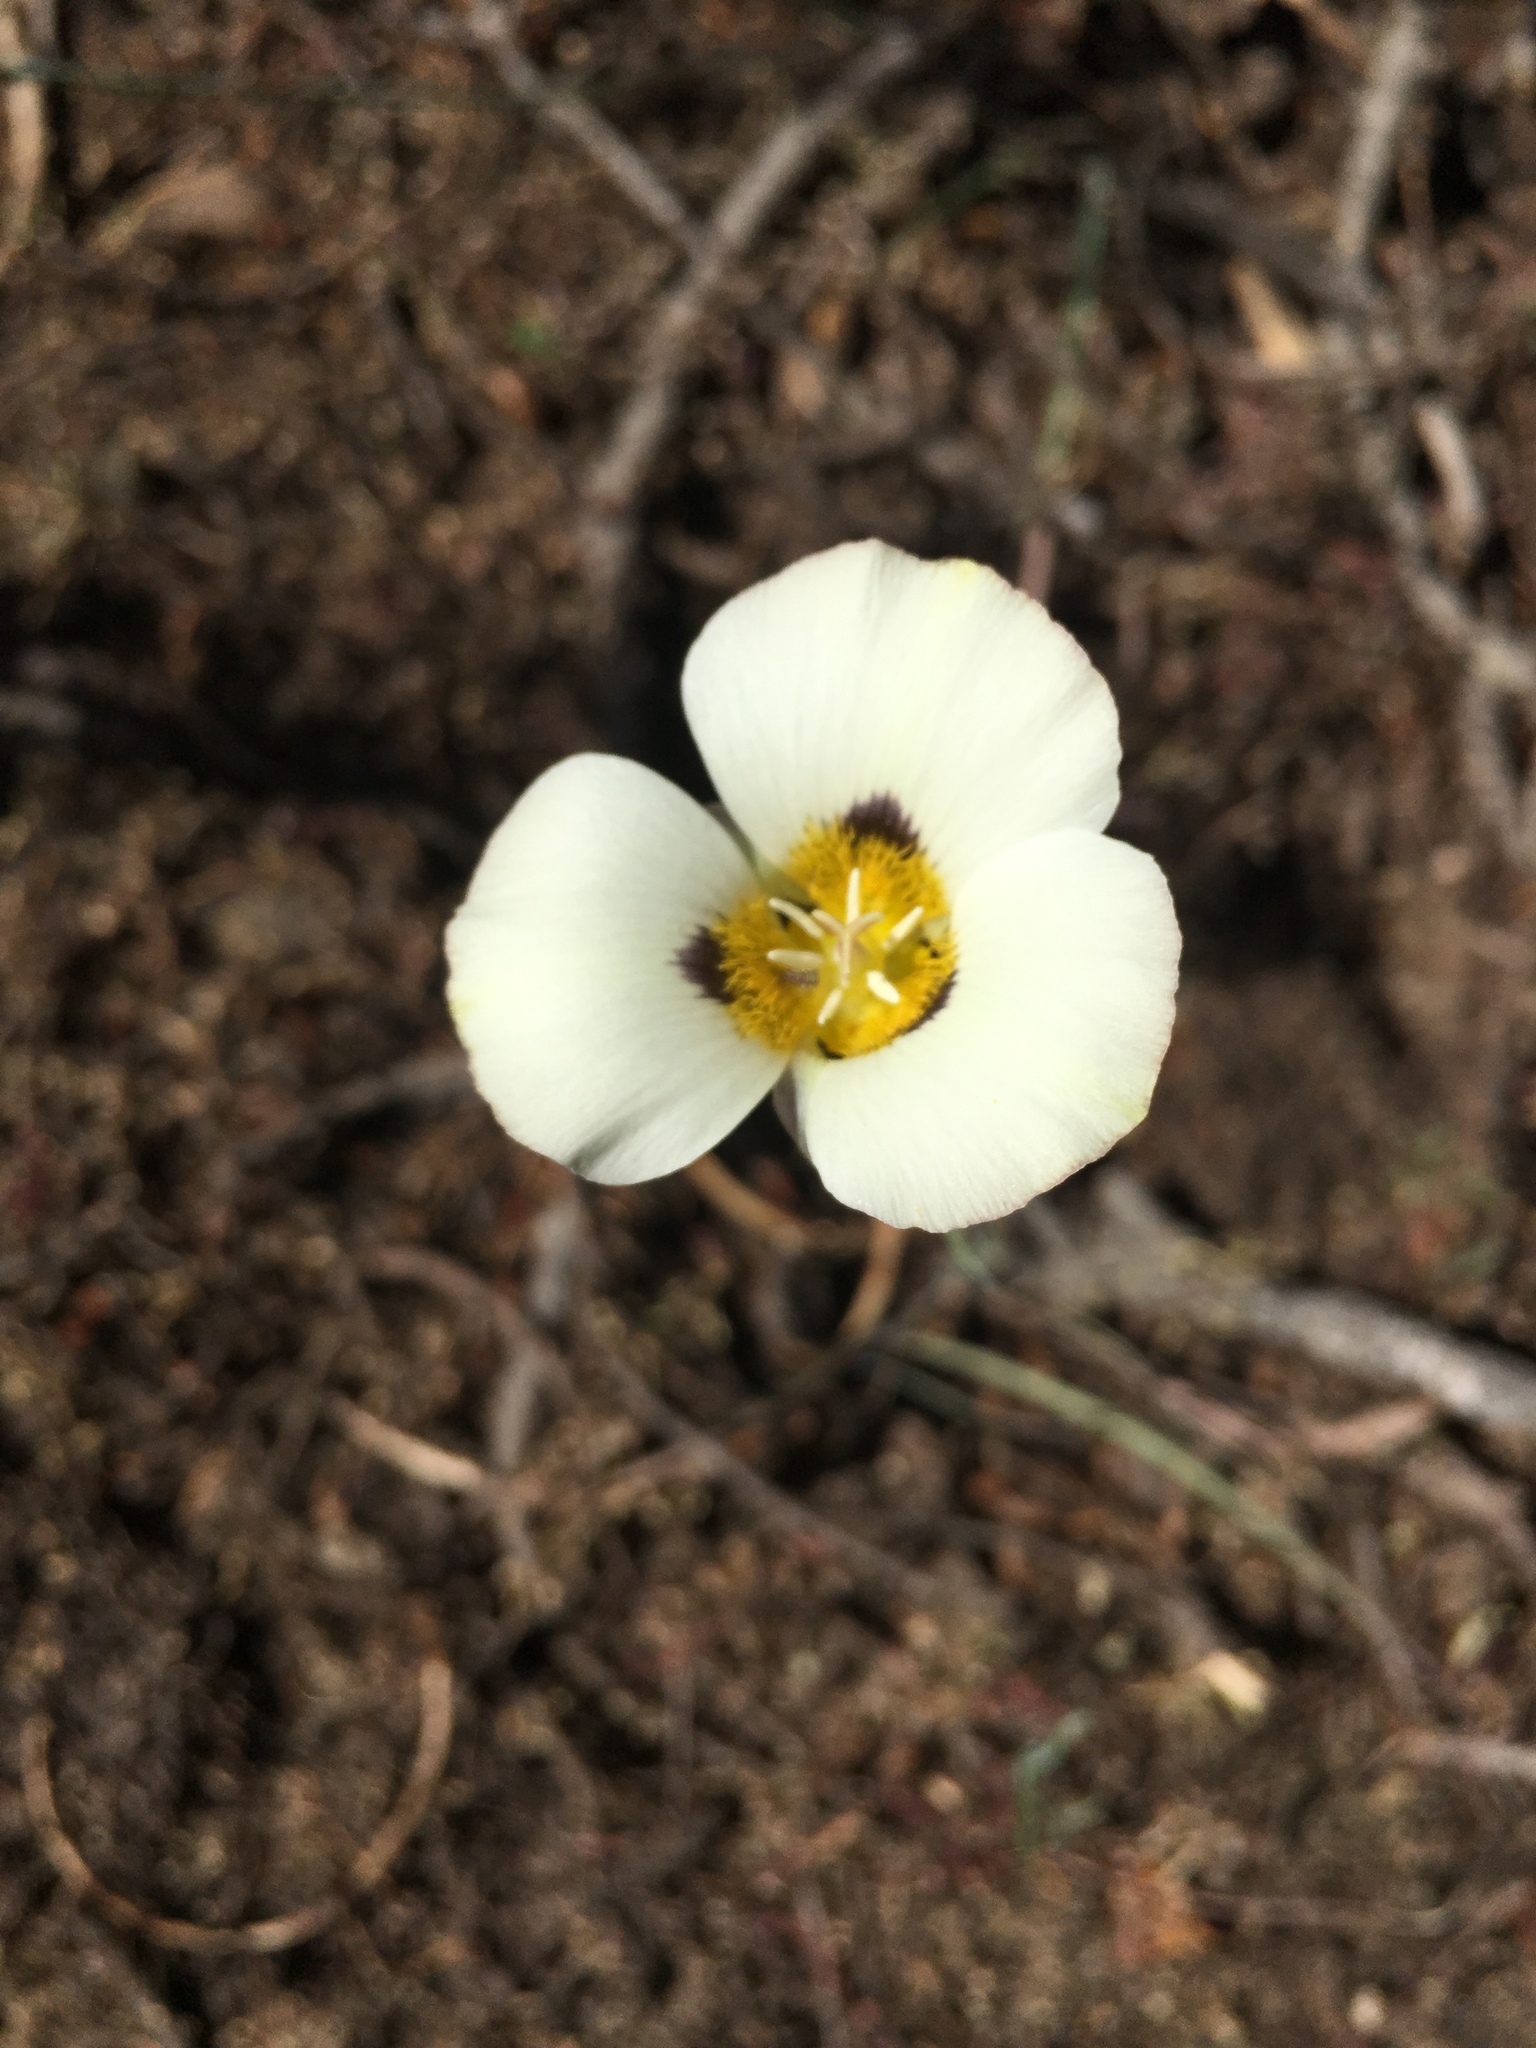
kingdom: Plantae
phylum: Tracheophyta
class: Liliopsida
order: Liliales
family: Liliaceae
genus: Calochortus
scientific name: Calochortus leichtlinii
